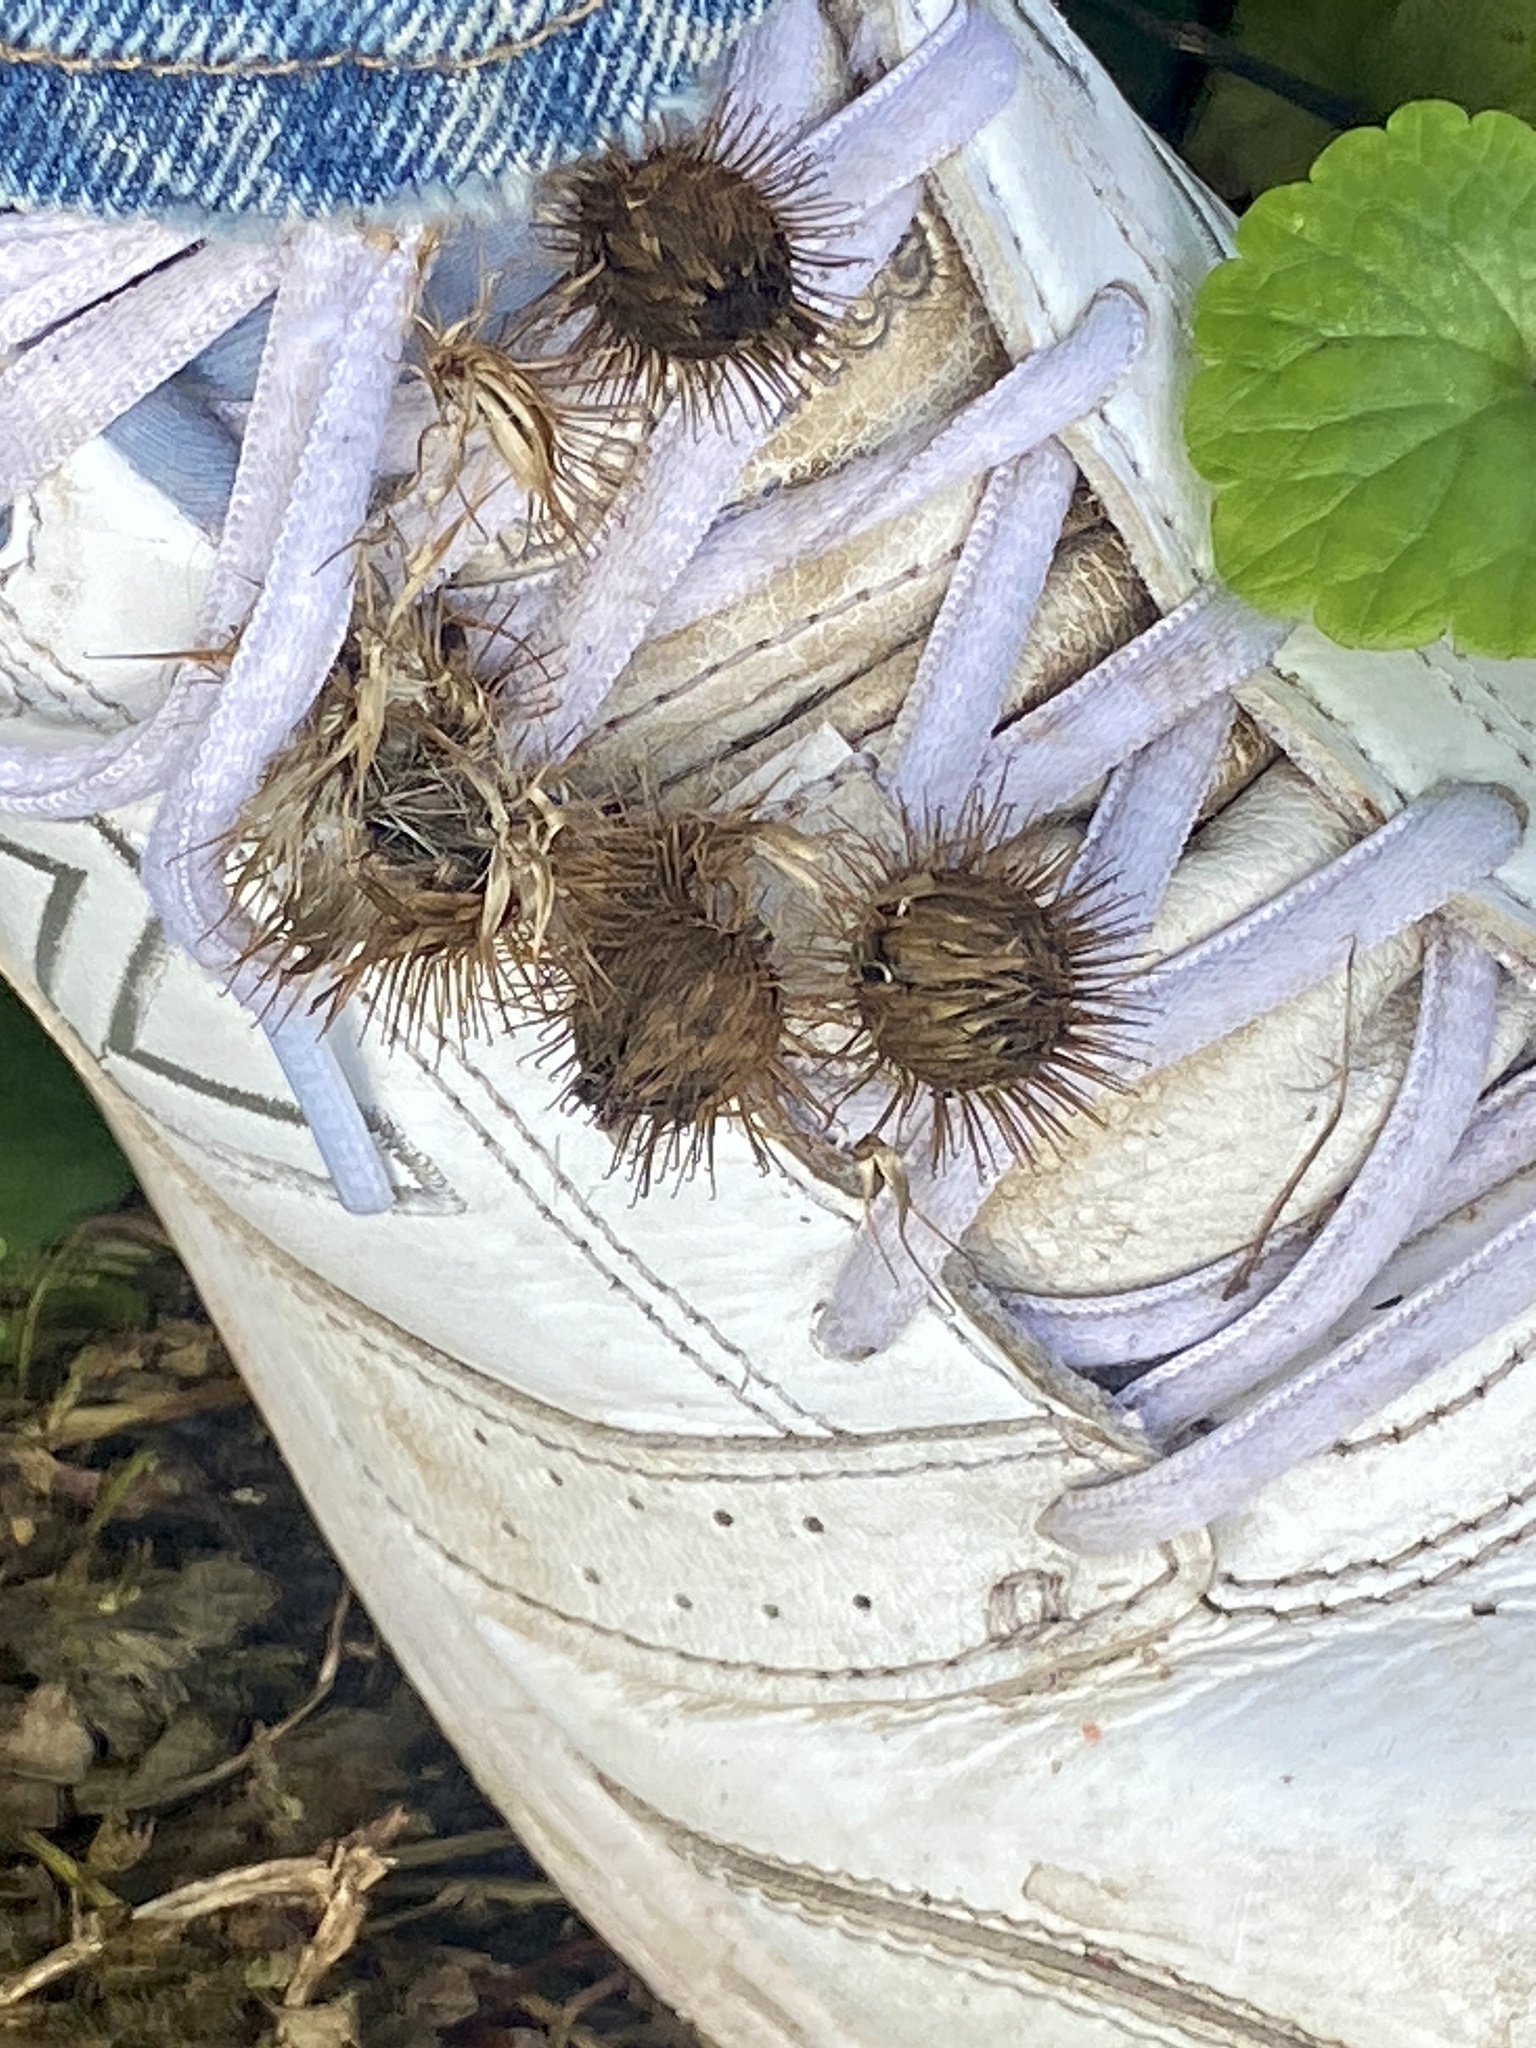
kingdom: Plantae
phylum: Tracheophyta
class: Magnoliopsida
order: Asterales
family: Asteraceae
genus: Arctium
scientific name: Arctium
